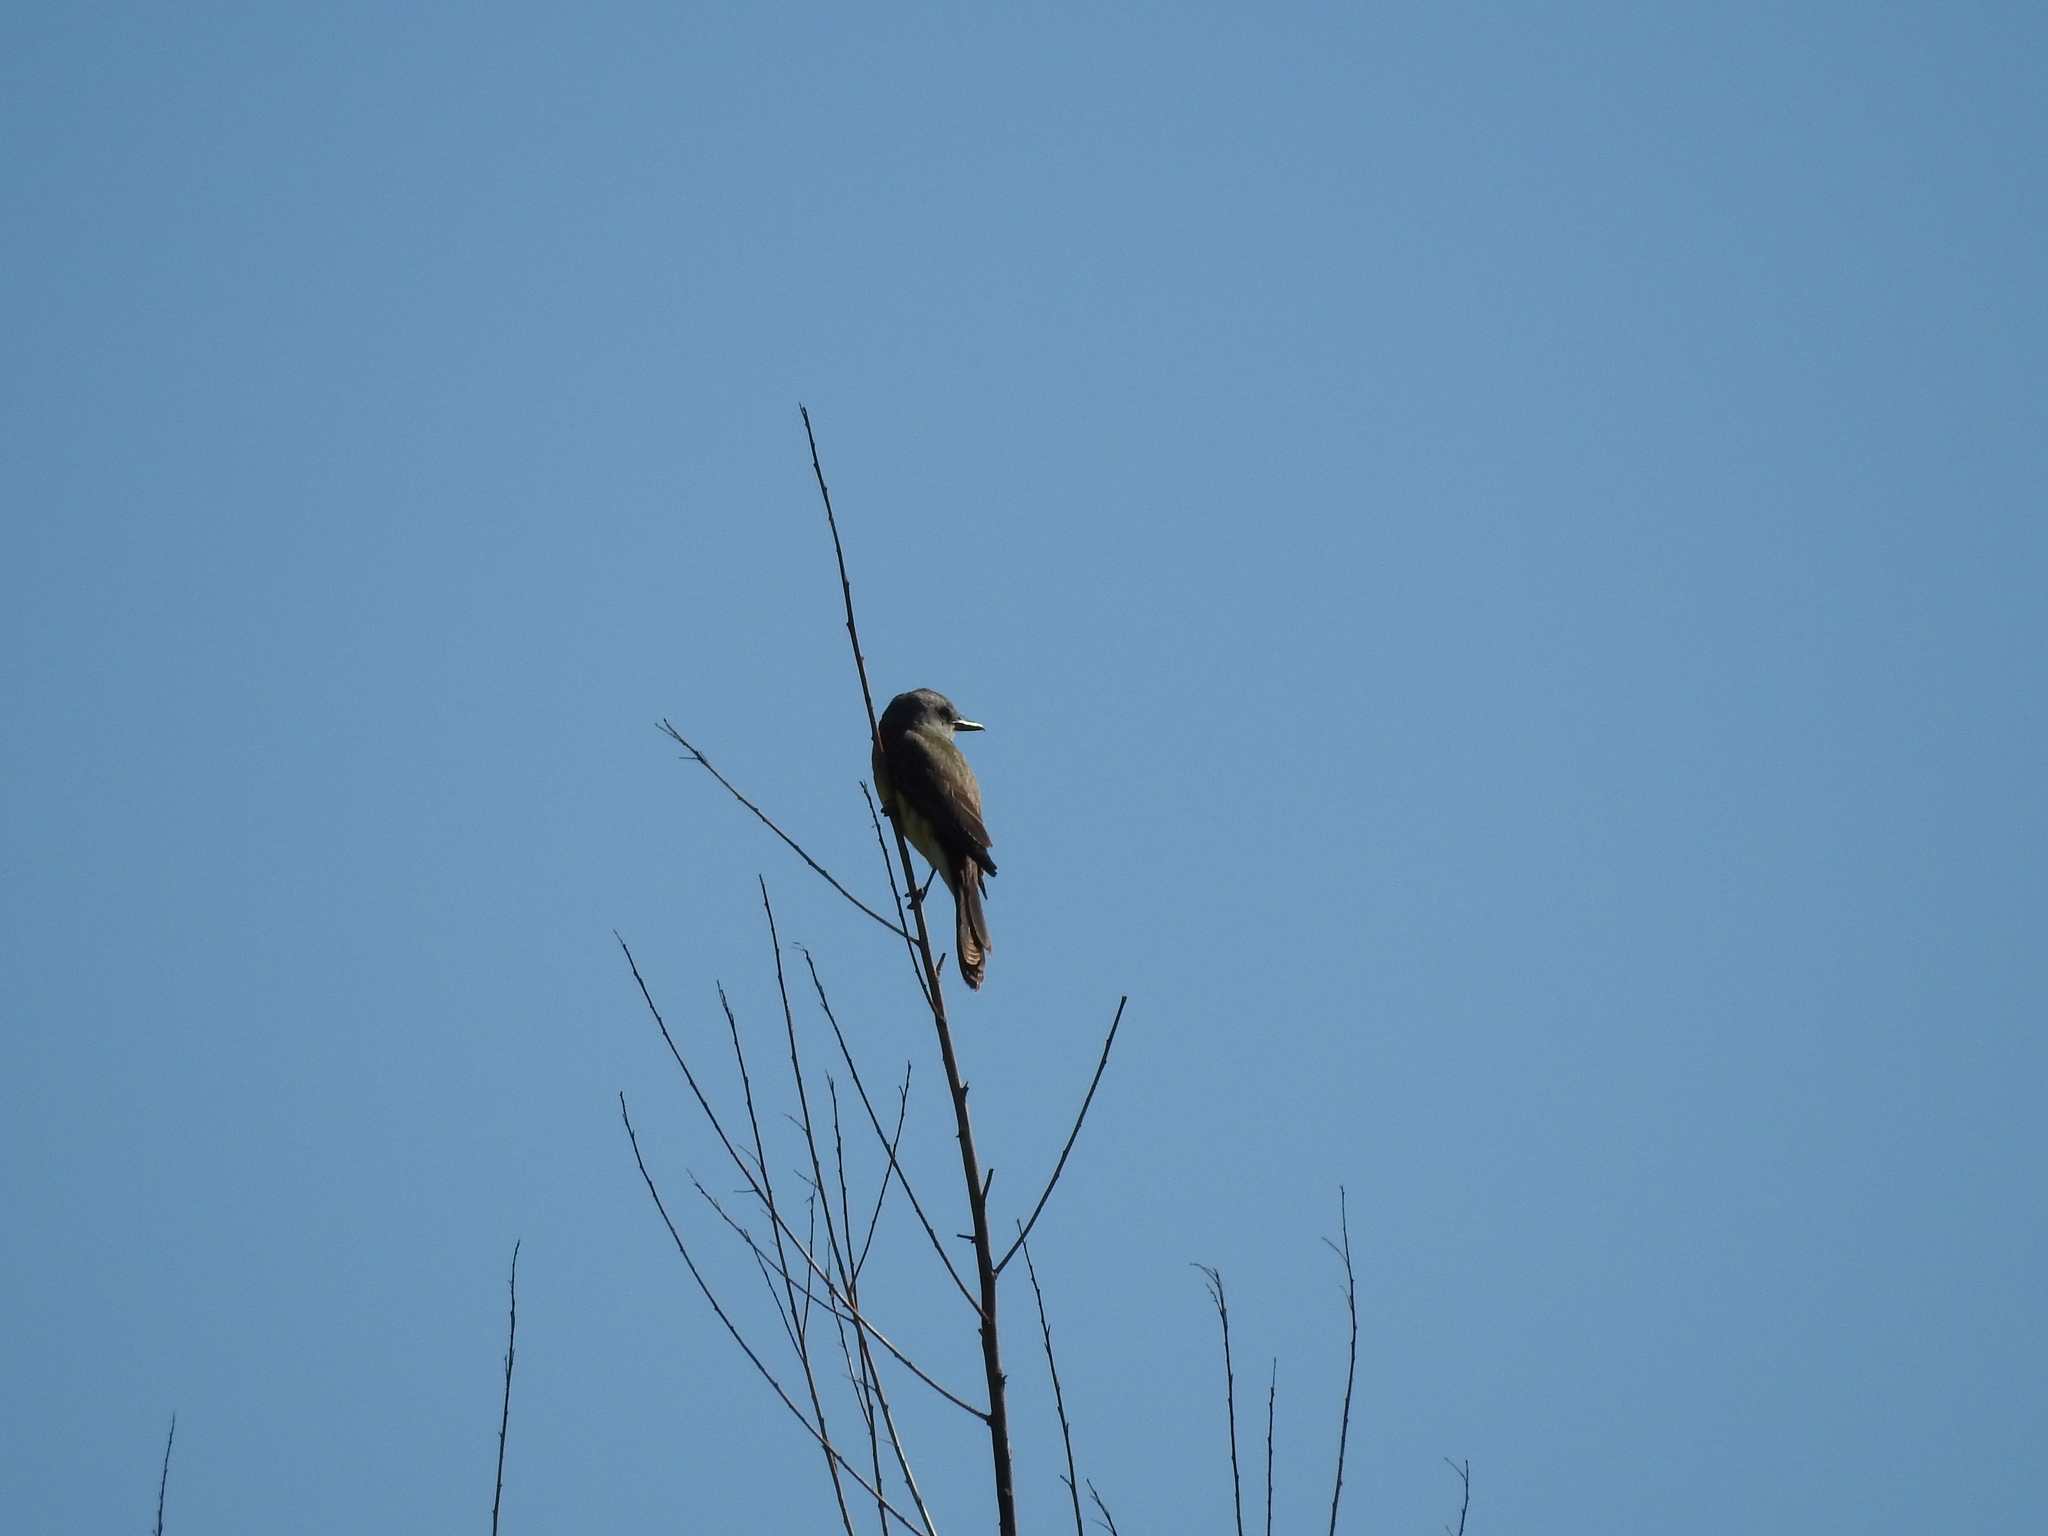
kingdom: Animalia
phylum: Chordata
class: Aves
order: Passeriformes
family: Tyrannidae
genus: Tyrannus
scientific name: Tyrannus melancholicus
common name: Tropical kingbird
